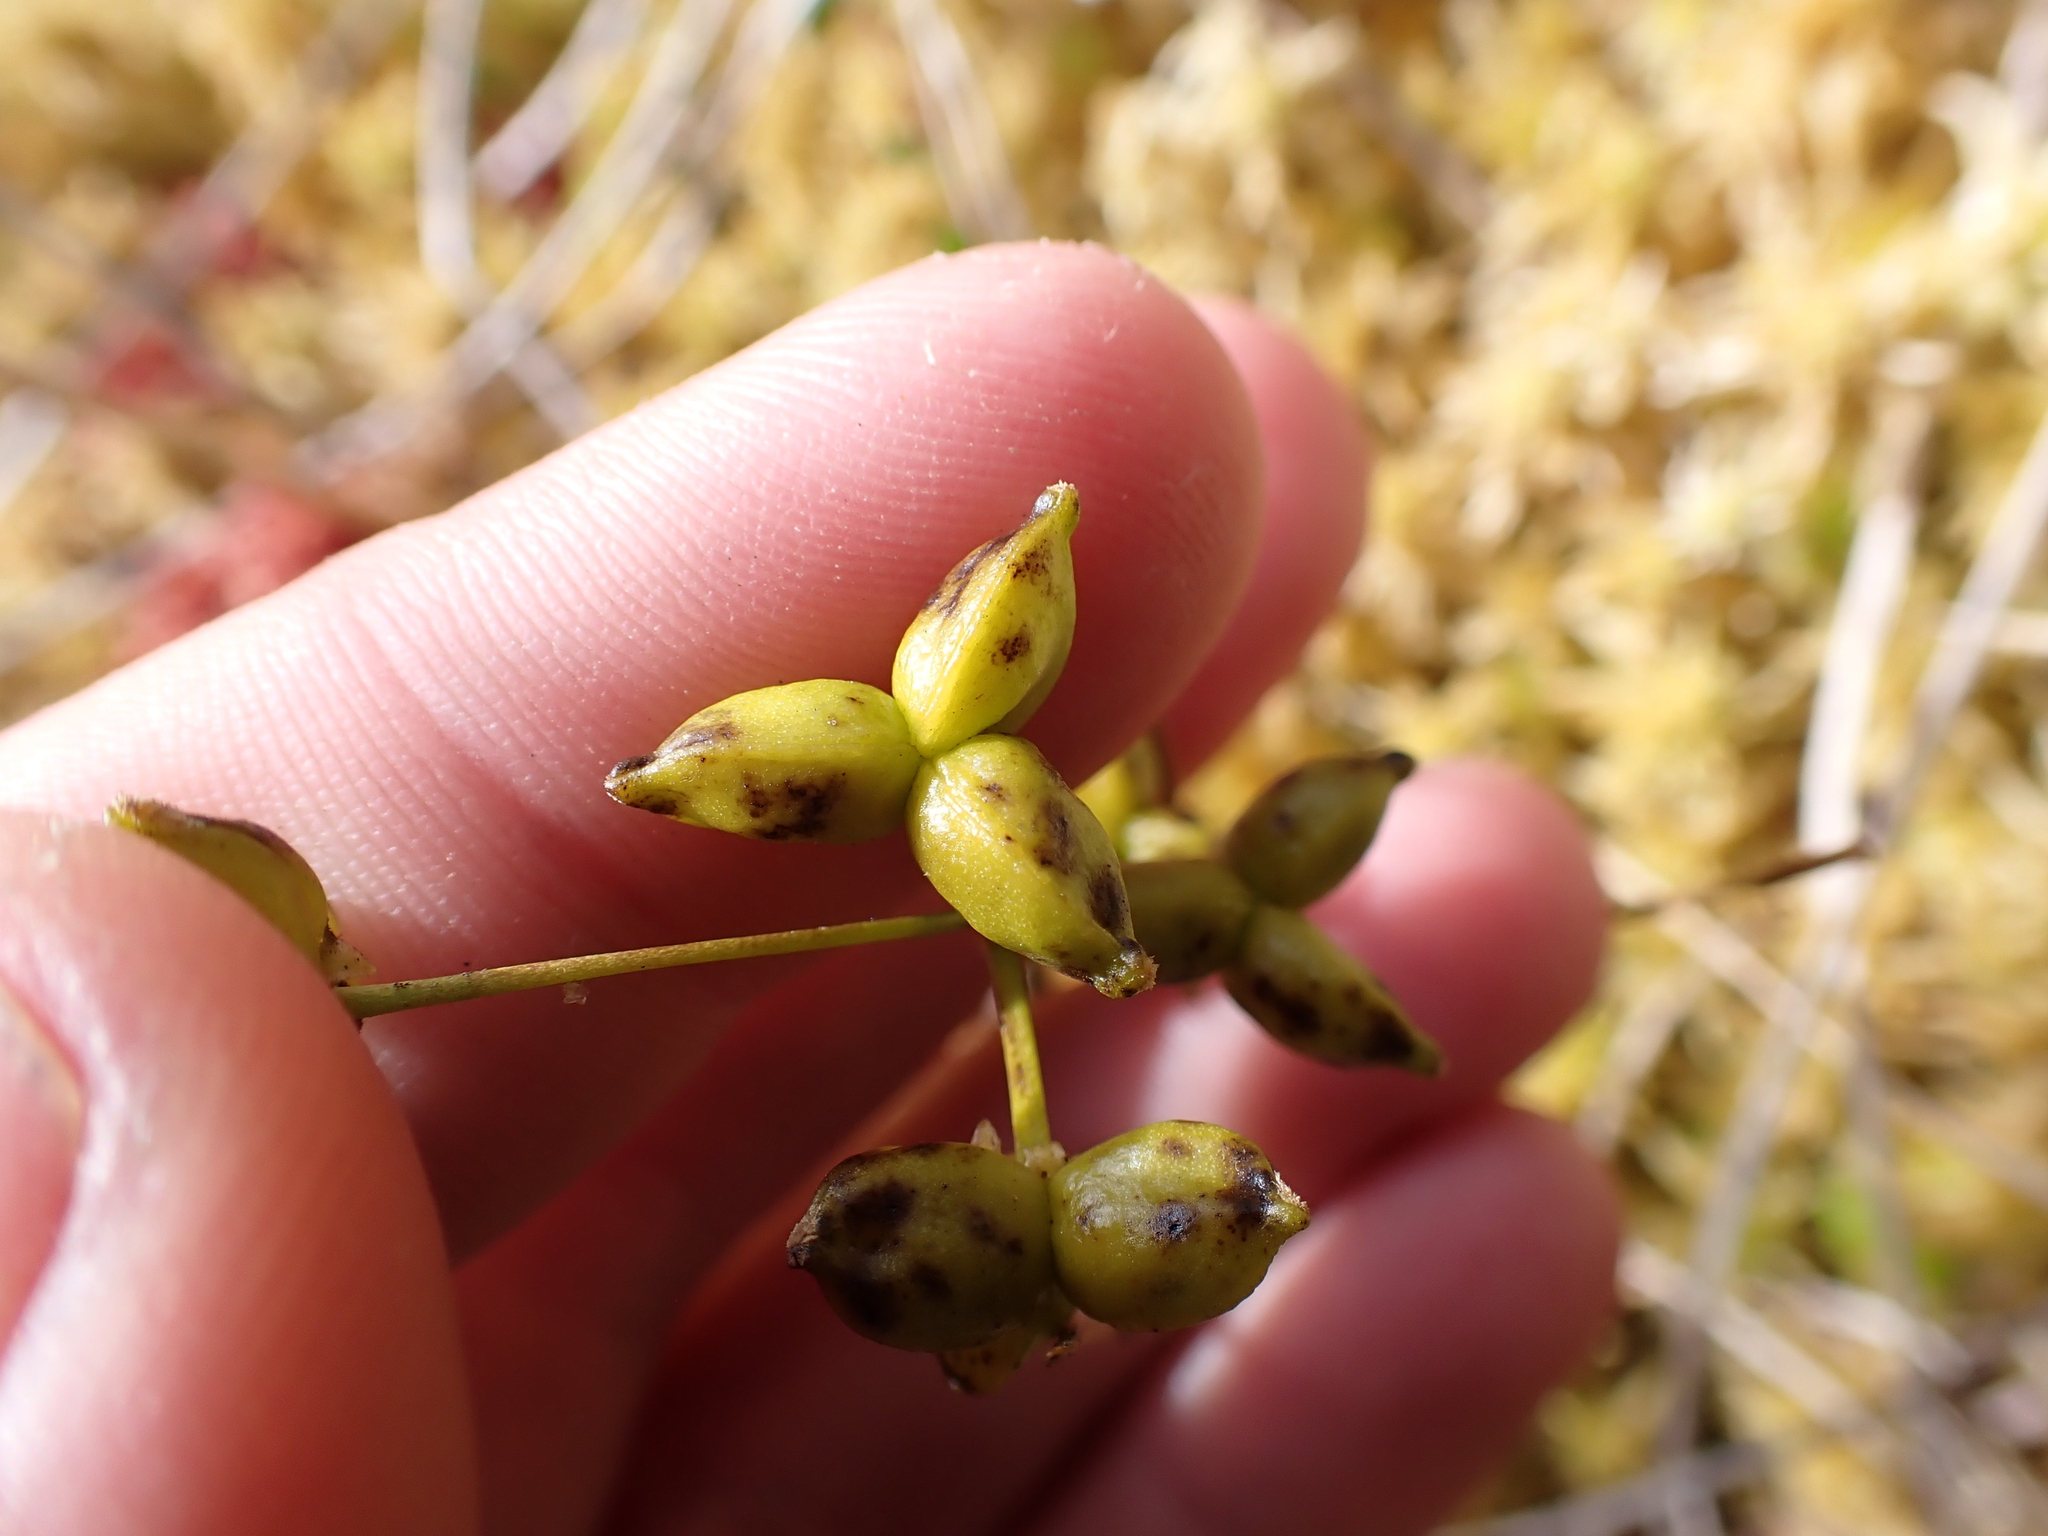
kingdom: Plantae
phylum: Tracheophyta
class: Liliopsida
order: Alismatales
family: Scheuchzeriaceae
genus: Scheuchzeria
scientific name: Scheuchzeria palustris
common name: Rannoch-rush
